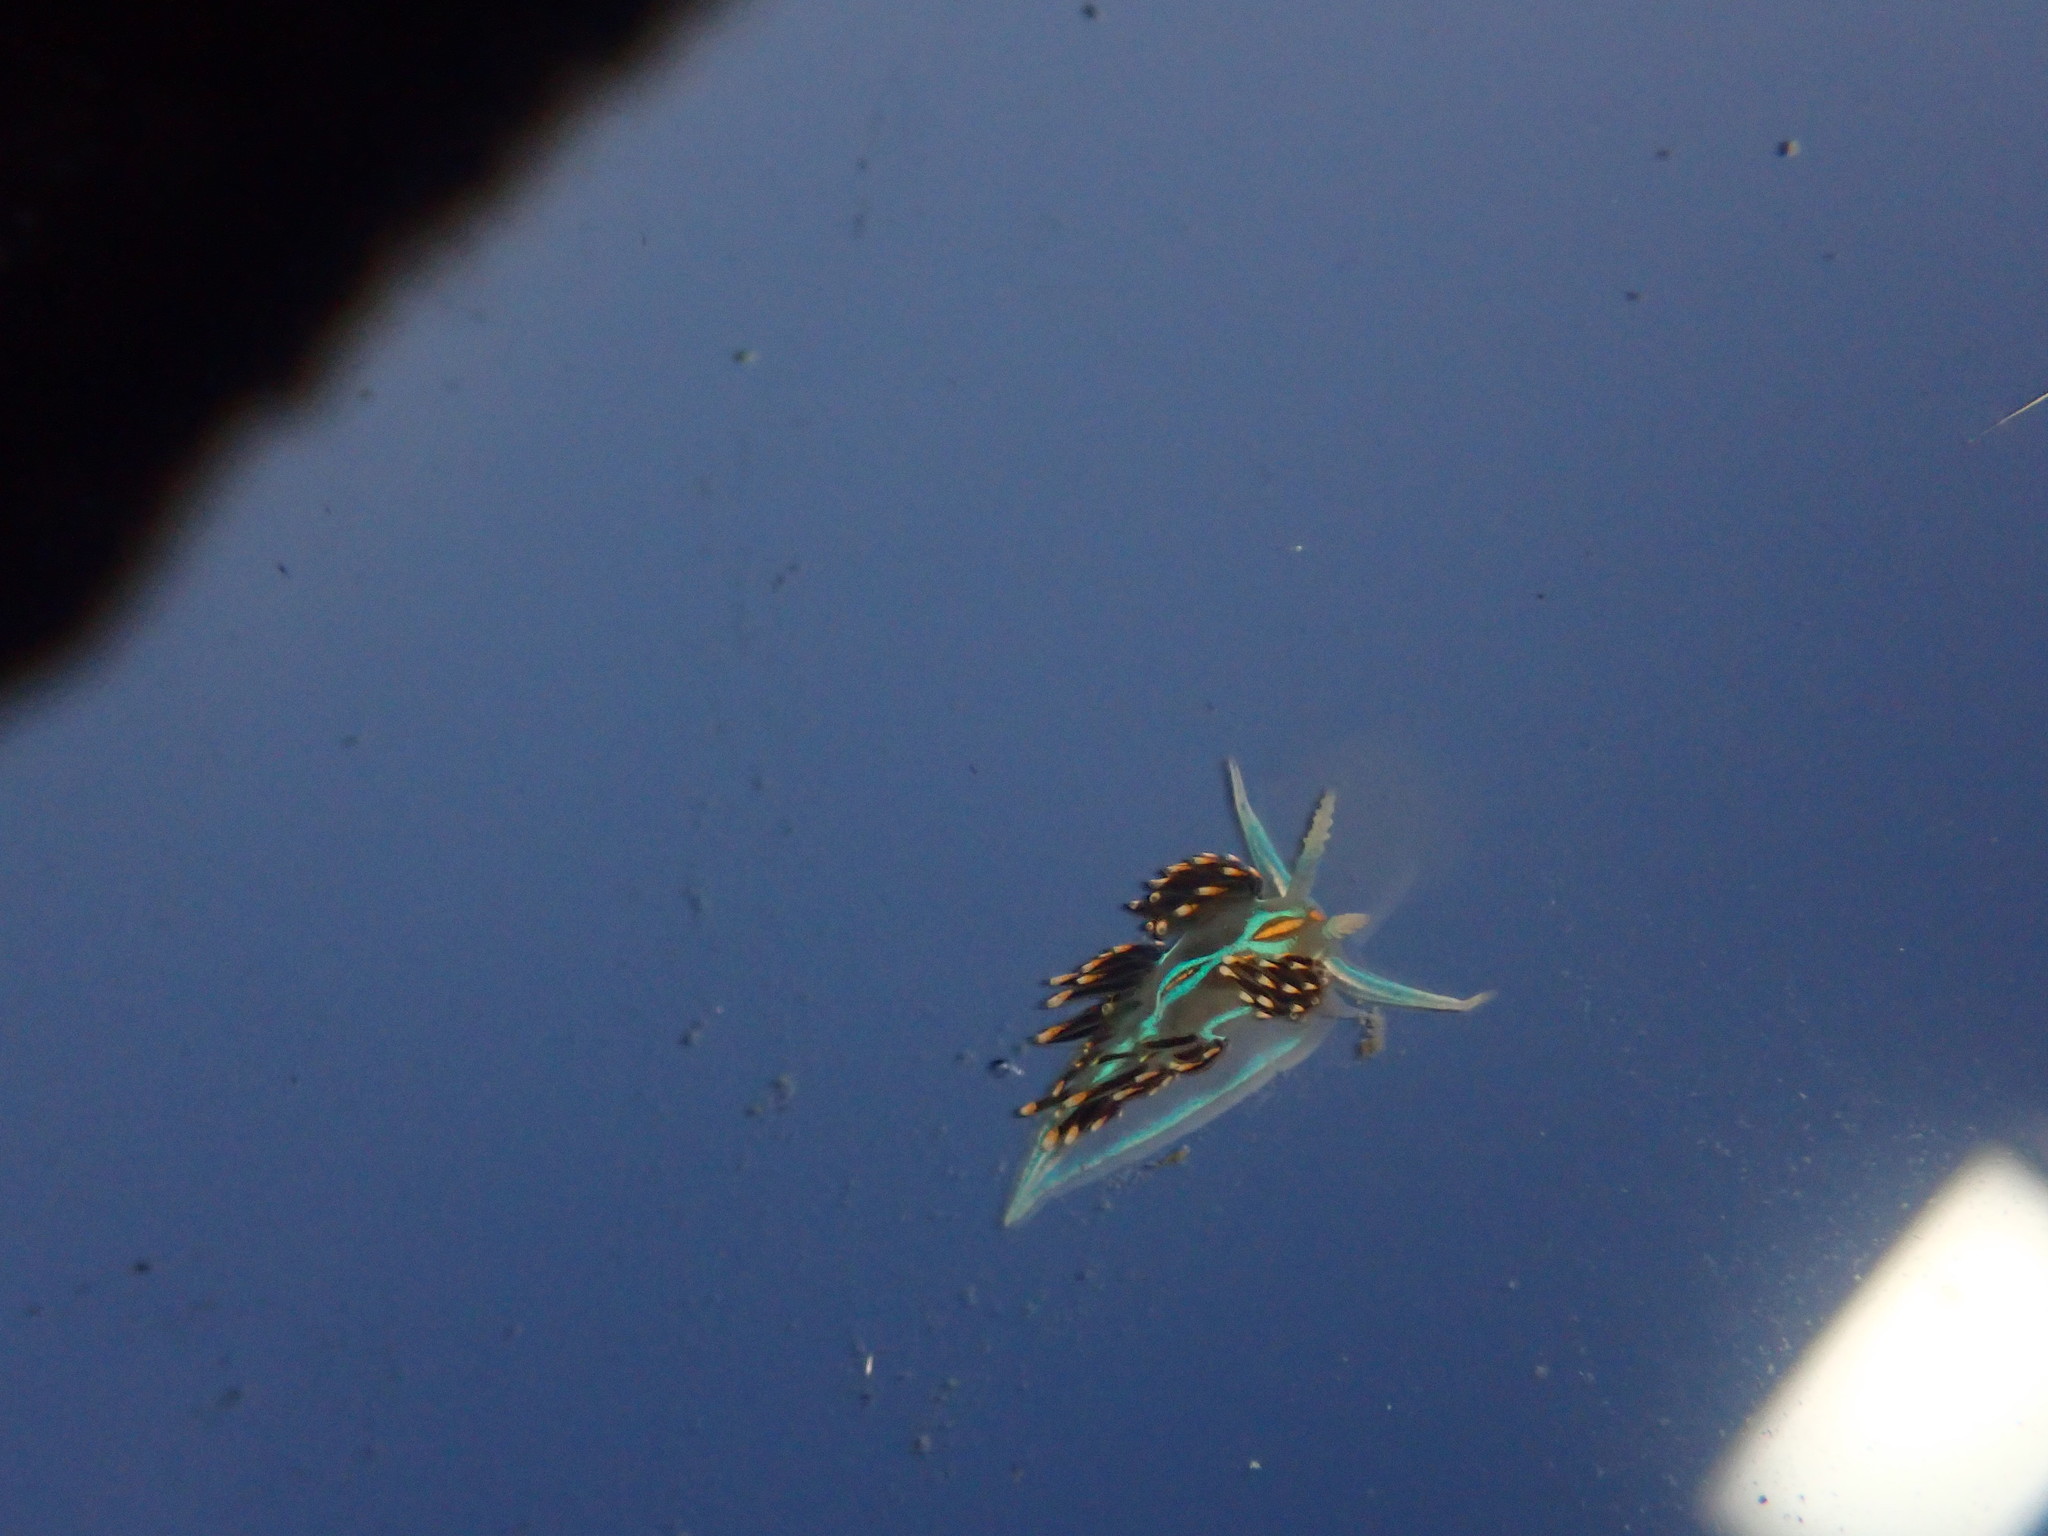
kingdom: Animalia
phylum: Mollusca
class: Gastropoda
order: Nudibranchia
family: Myrrhinidae
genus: Hermissenda
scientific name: Hermissenda opalescens
